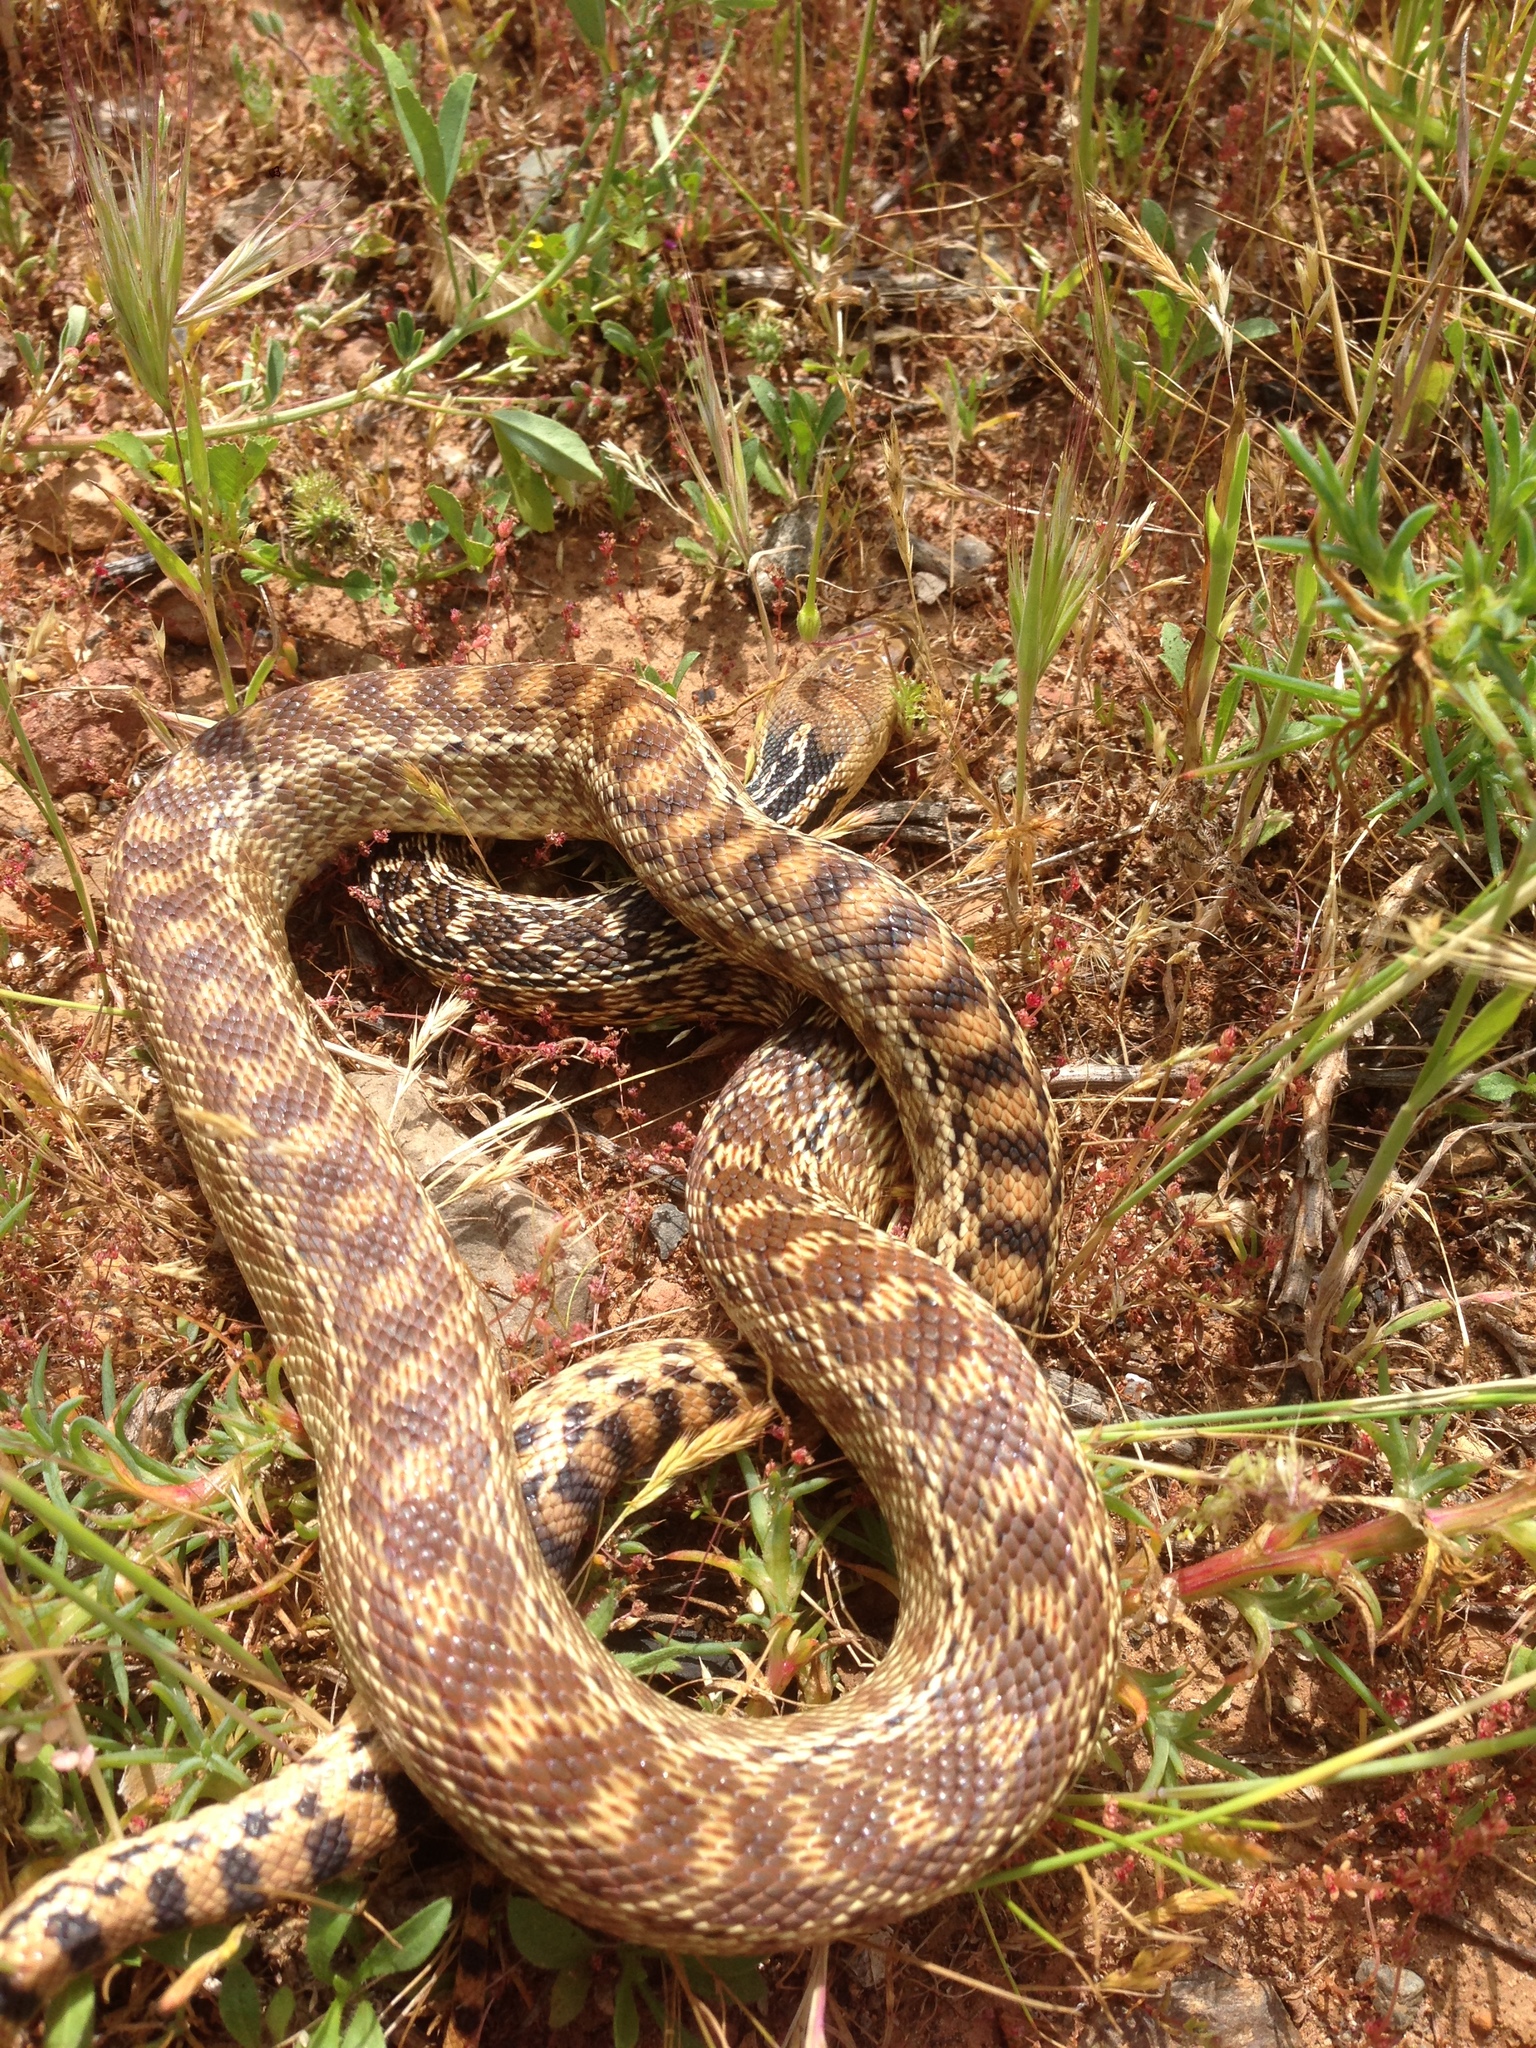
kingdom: Animalia
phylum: Chordata
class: Squamata
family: Colubridae
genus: Pituophis
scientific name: Pituophis catenifer
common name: Gopher snake
